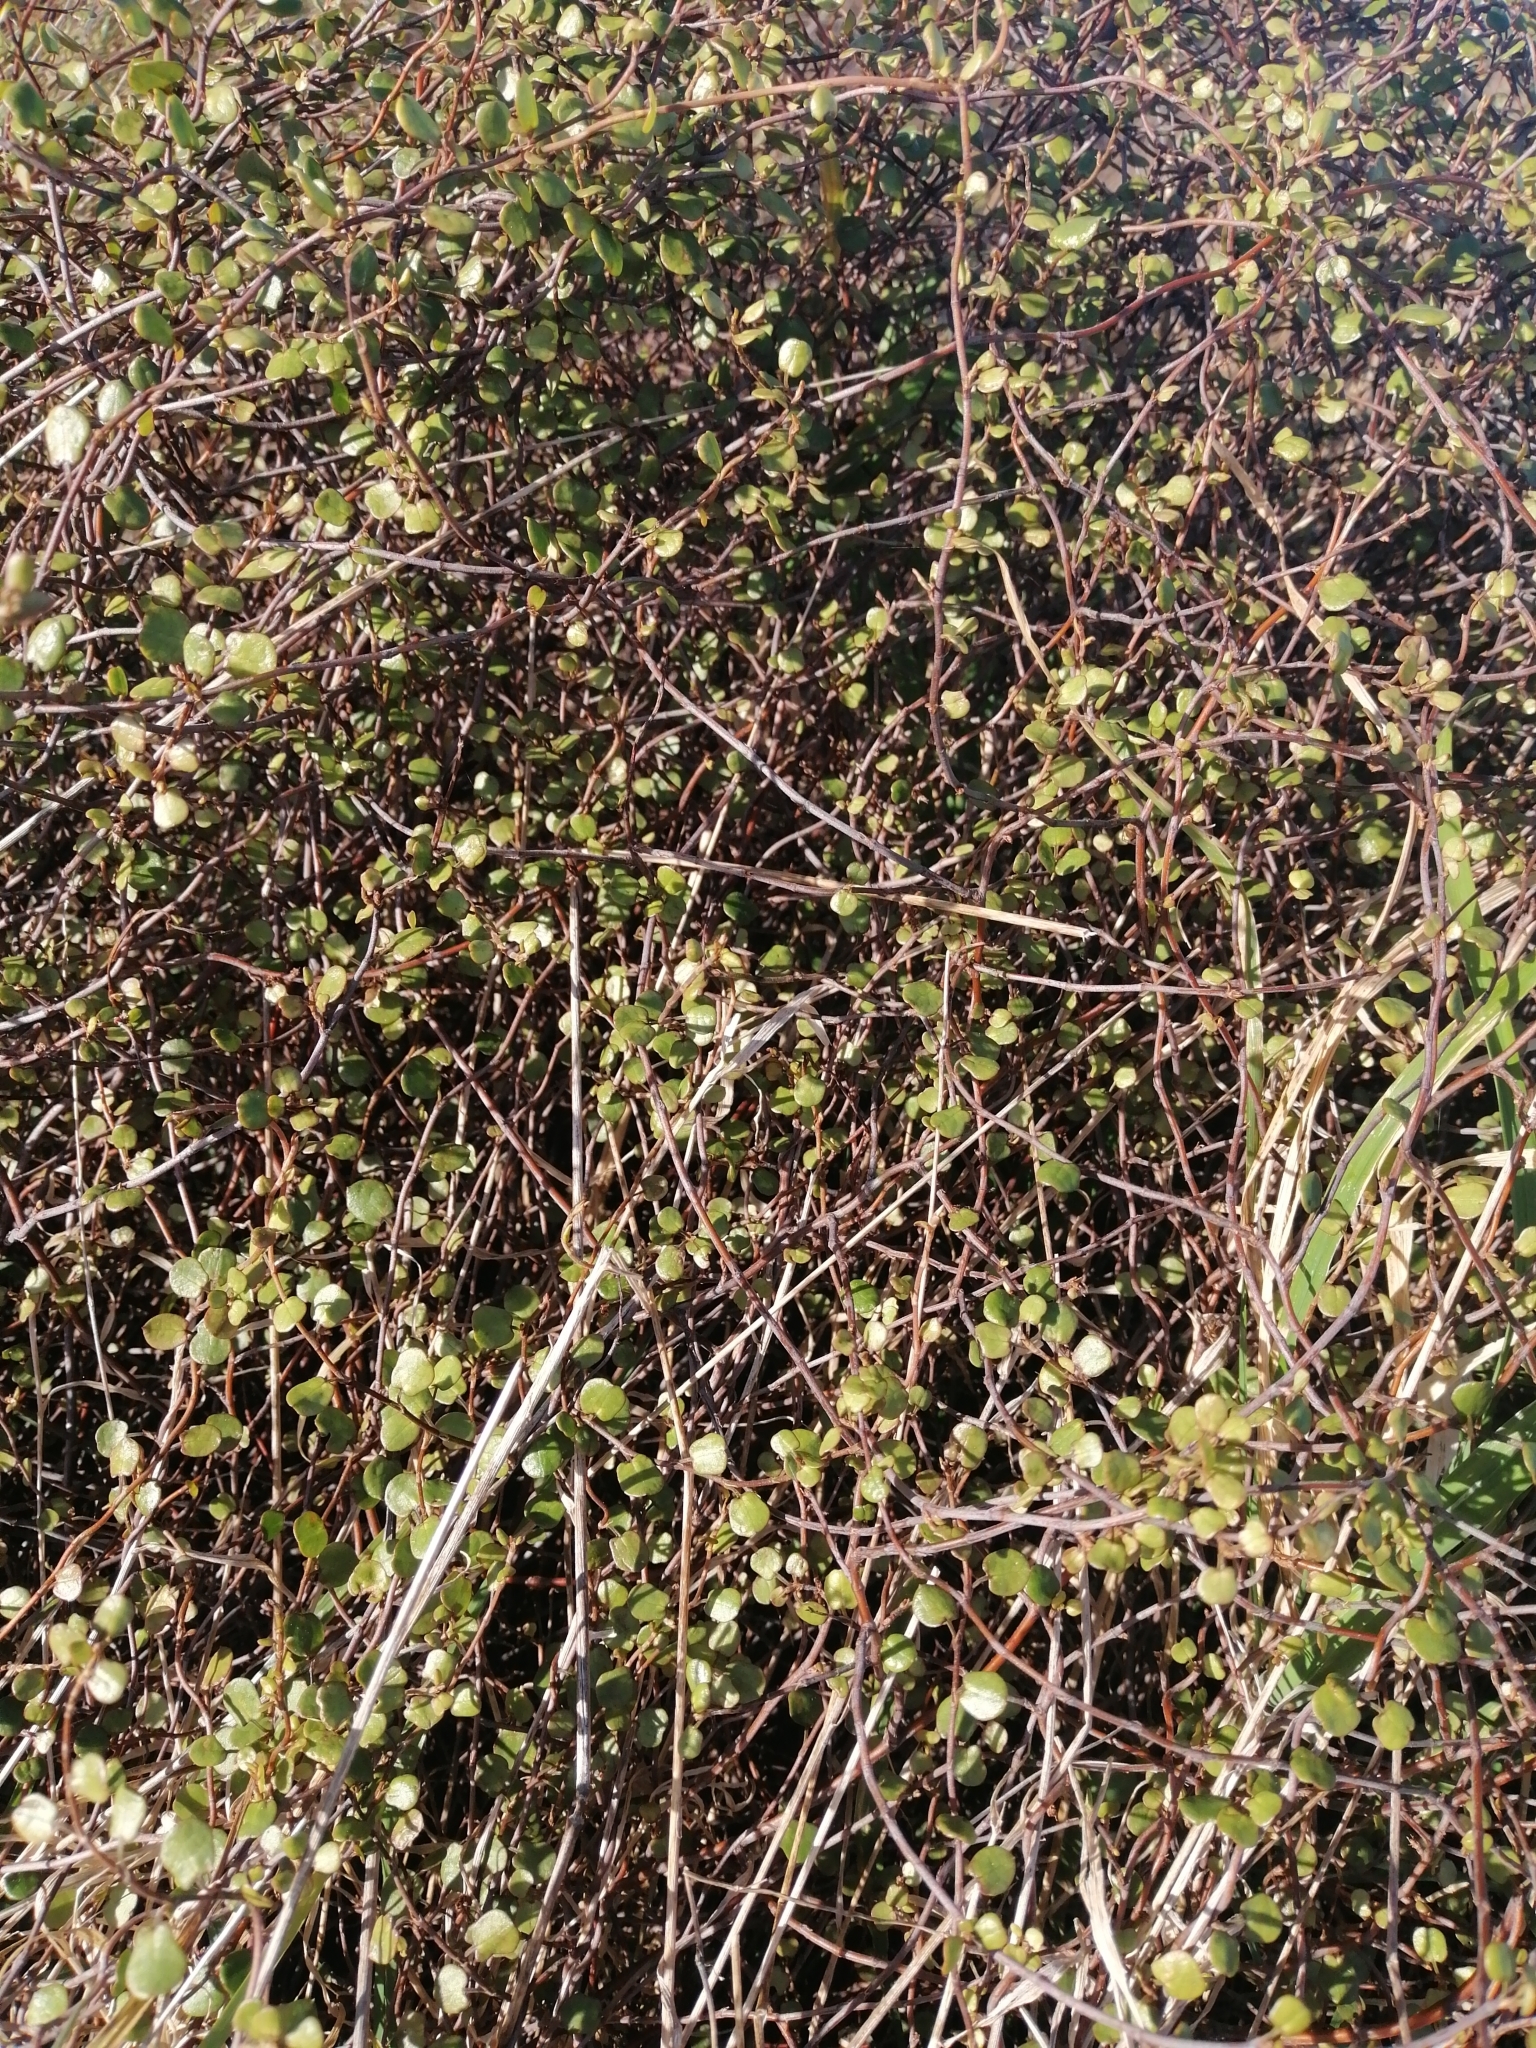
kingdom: Plantae
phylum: Tracheophyta
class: Magnoliopsida
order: Caryophyllales
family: Polygonaceae
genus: Muehlenbeckia
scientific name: Muehlenbeckia complexa
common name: Wireplant
